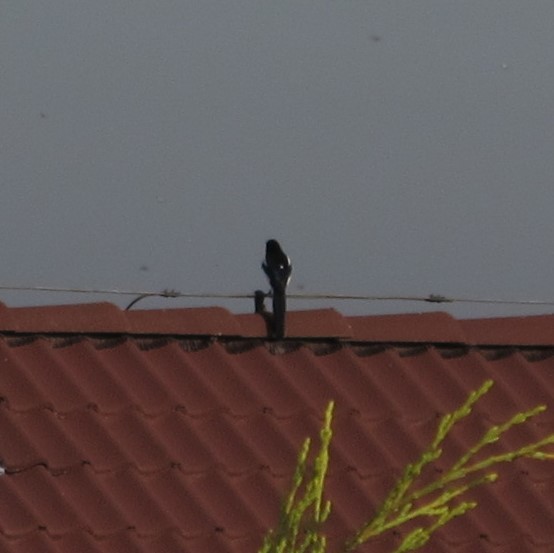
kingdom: Animalia
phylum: Chordata
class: Aves
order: Passeriformes
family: Corvidae
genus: Pica
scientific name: Pica pica
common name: Eurasian magpie
